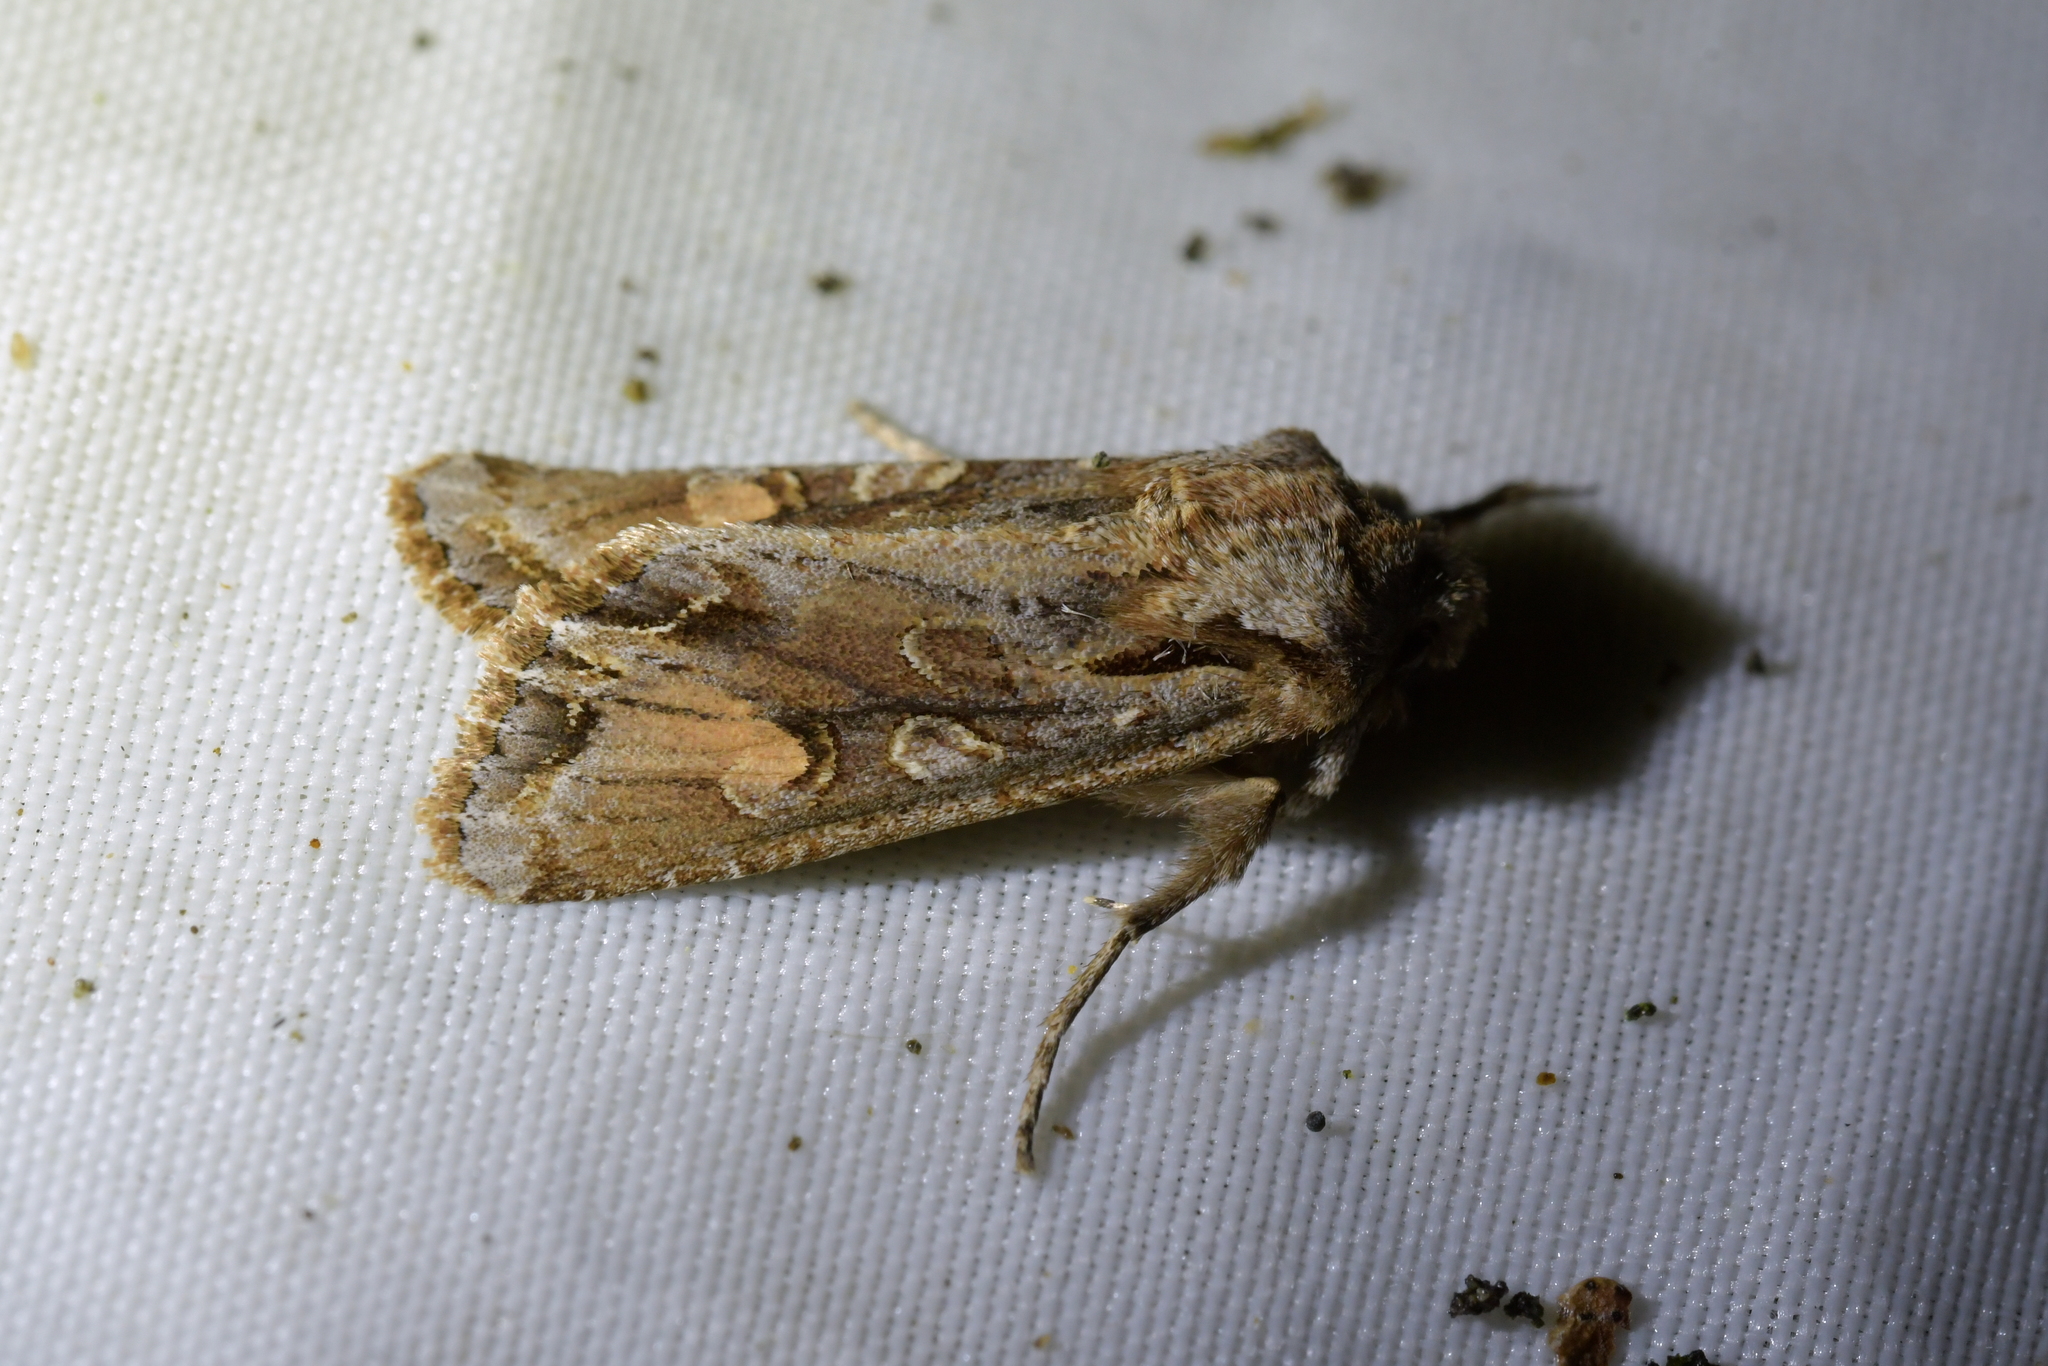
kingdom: Animalia
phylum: Arthropoda
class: Insecta
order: Lepidoptera
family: Noctuidae
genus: Ichneutica
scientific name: Ichneutica
